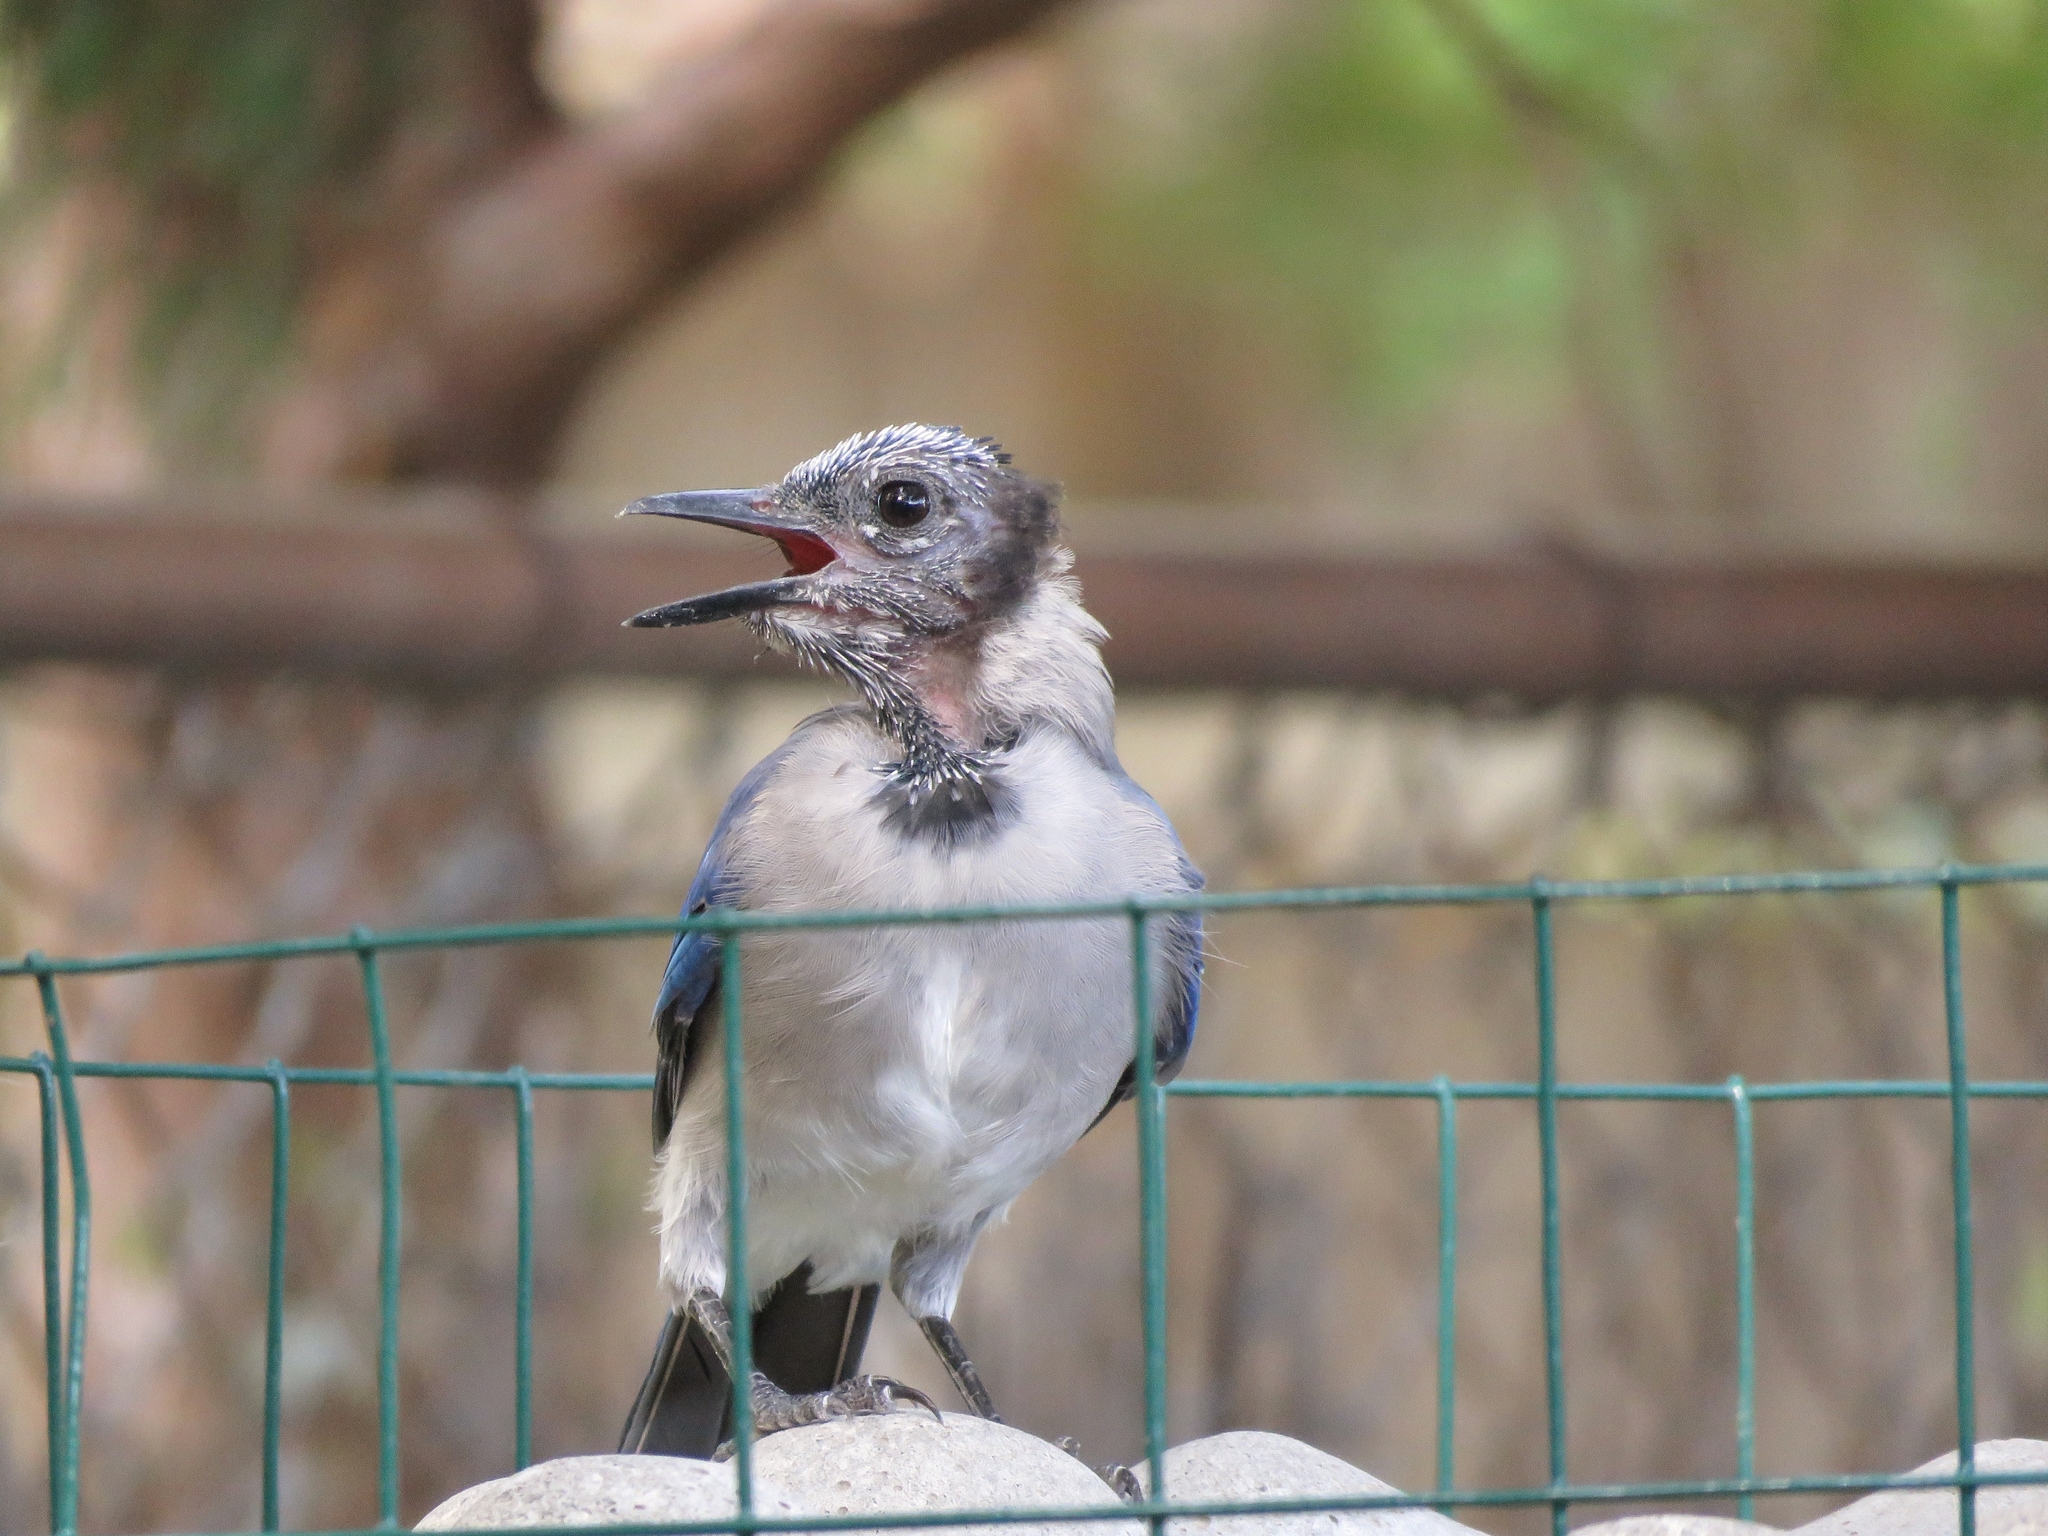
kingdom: Animalia
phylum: Chordata
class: Aves
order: Passeriformes
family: Corvidae
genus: Cyanocitta
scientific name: Cyanocitta cristata
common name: Blue jay
